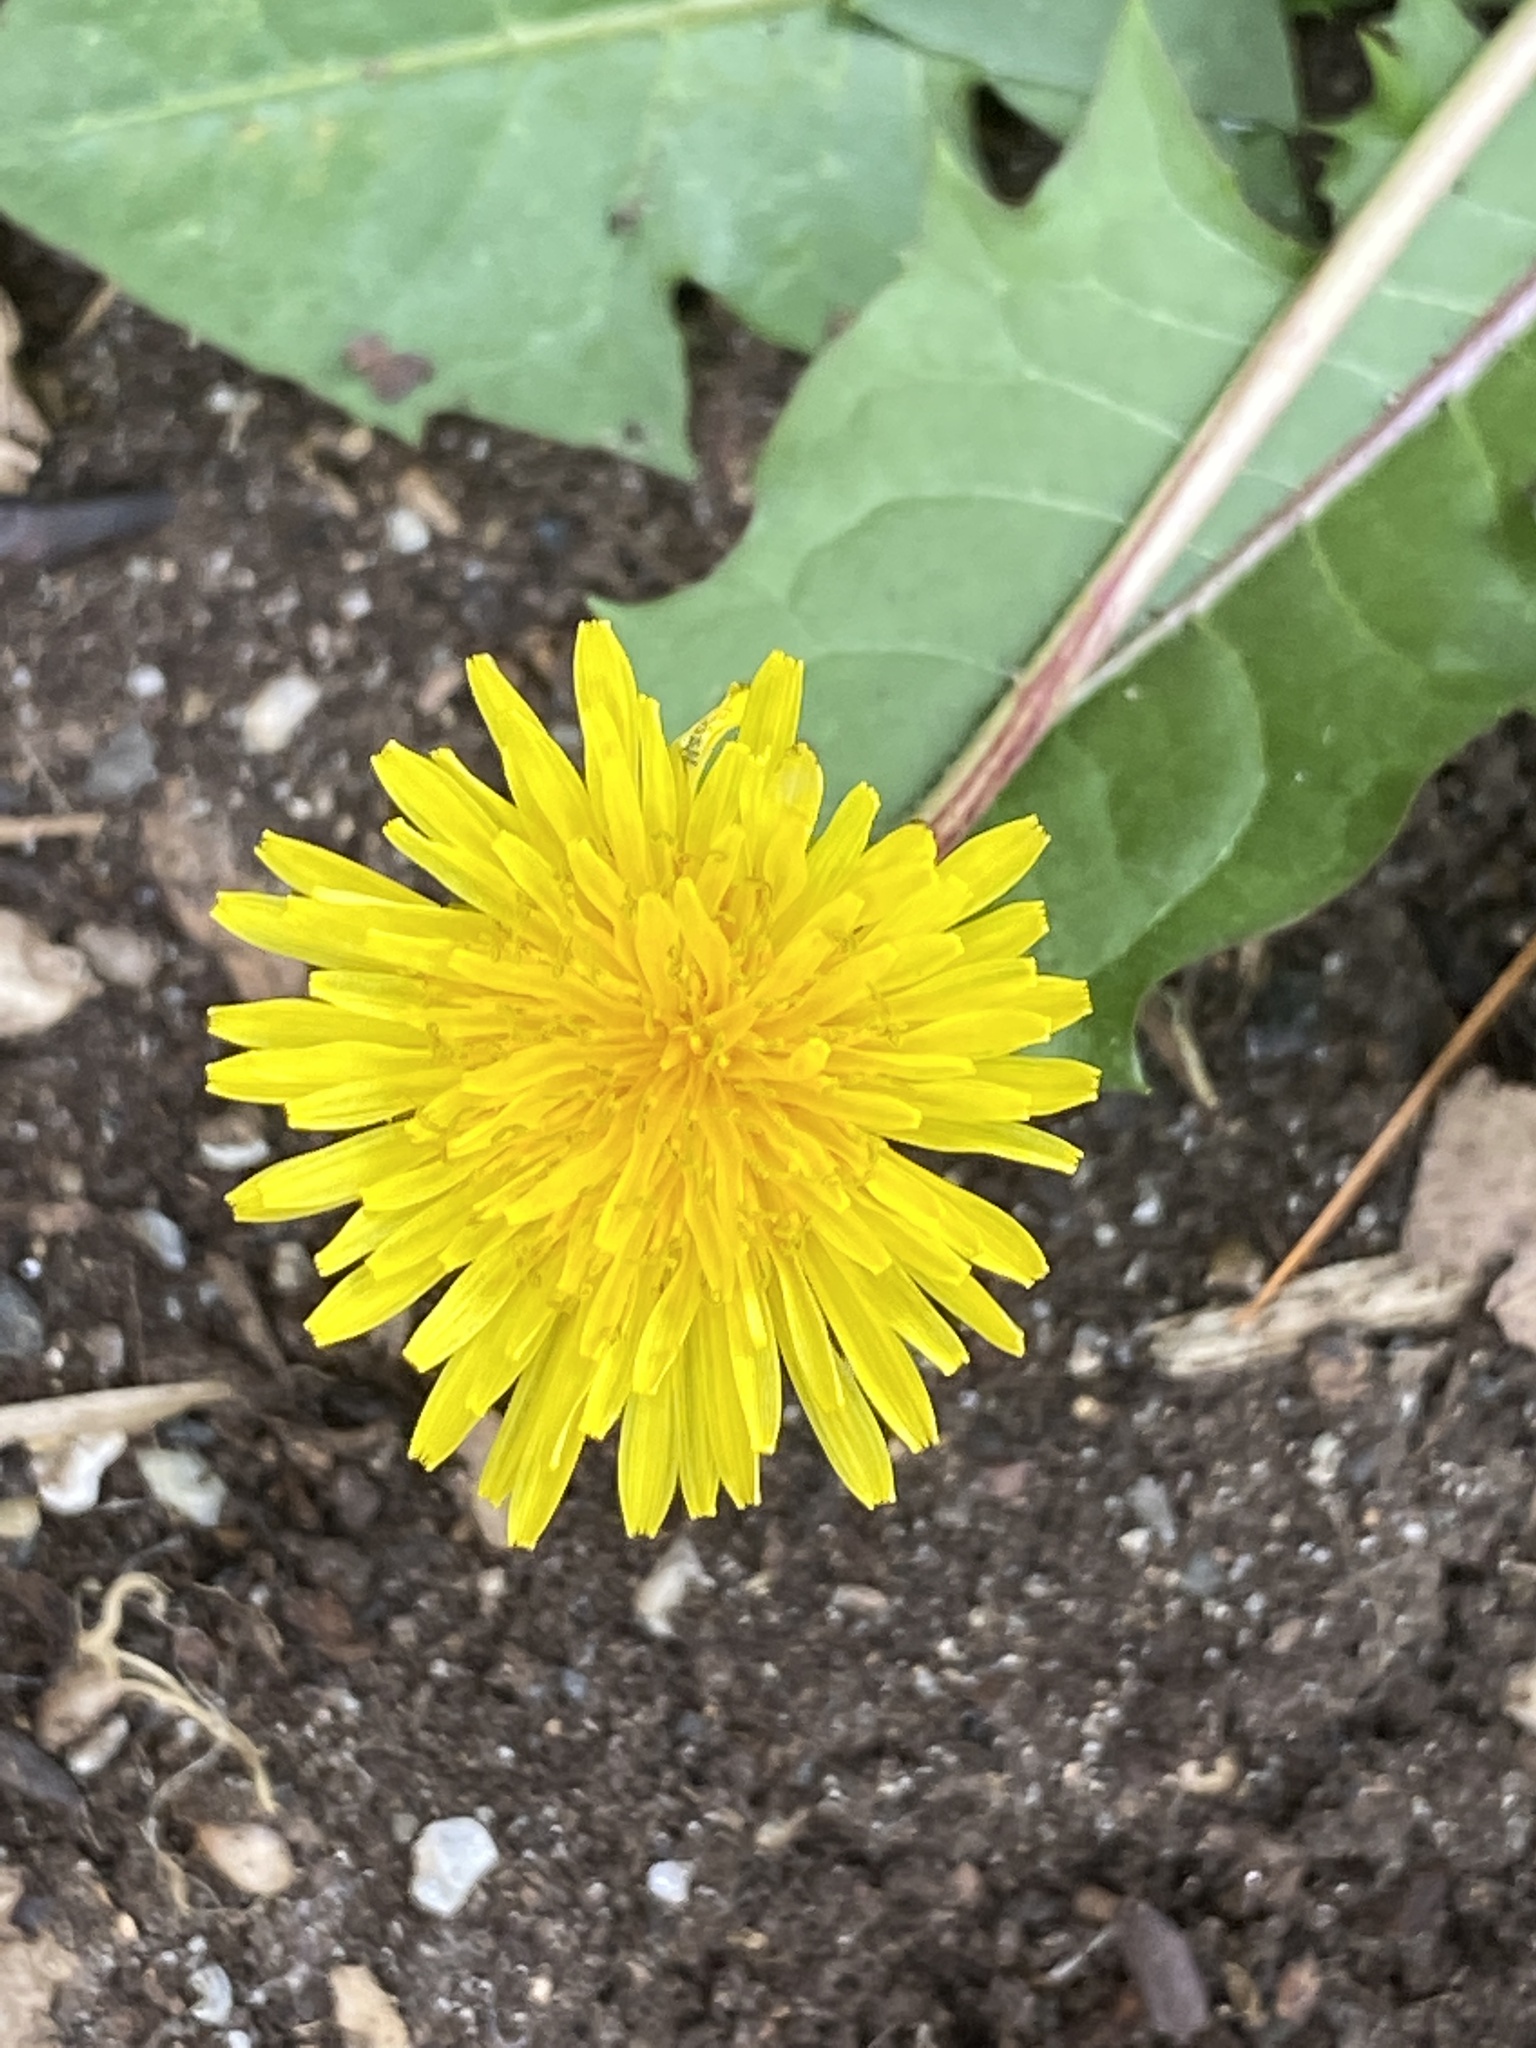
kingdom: Plantae
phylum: Tracheophyta
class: Magnoliopsida
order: Asterales
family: Asteraceae
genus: Taraxacum
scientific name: Taraxacum
